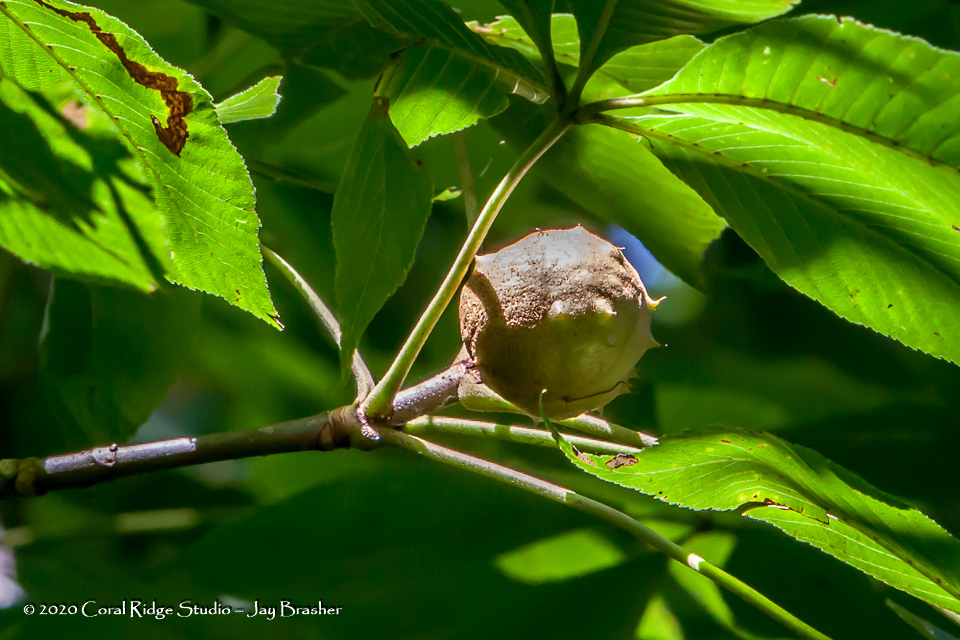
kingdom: Plantae
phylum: Tracheophyta
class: Magnoliopsida
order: Sapindales
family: Sapindaceae
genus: Aesculus
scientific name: Aesculus glabra
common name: Ohio buckeye
